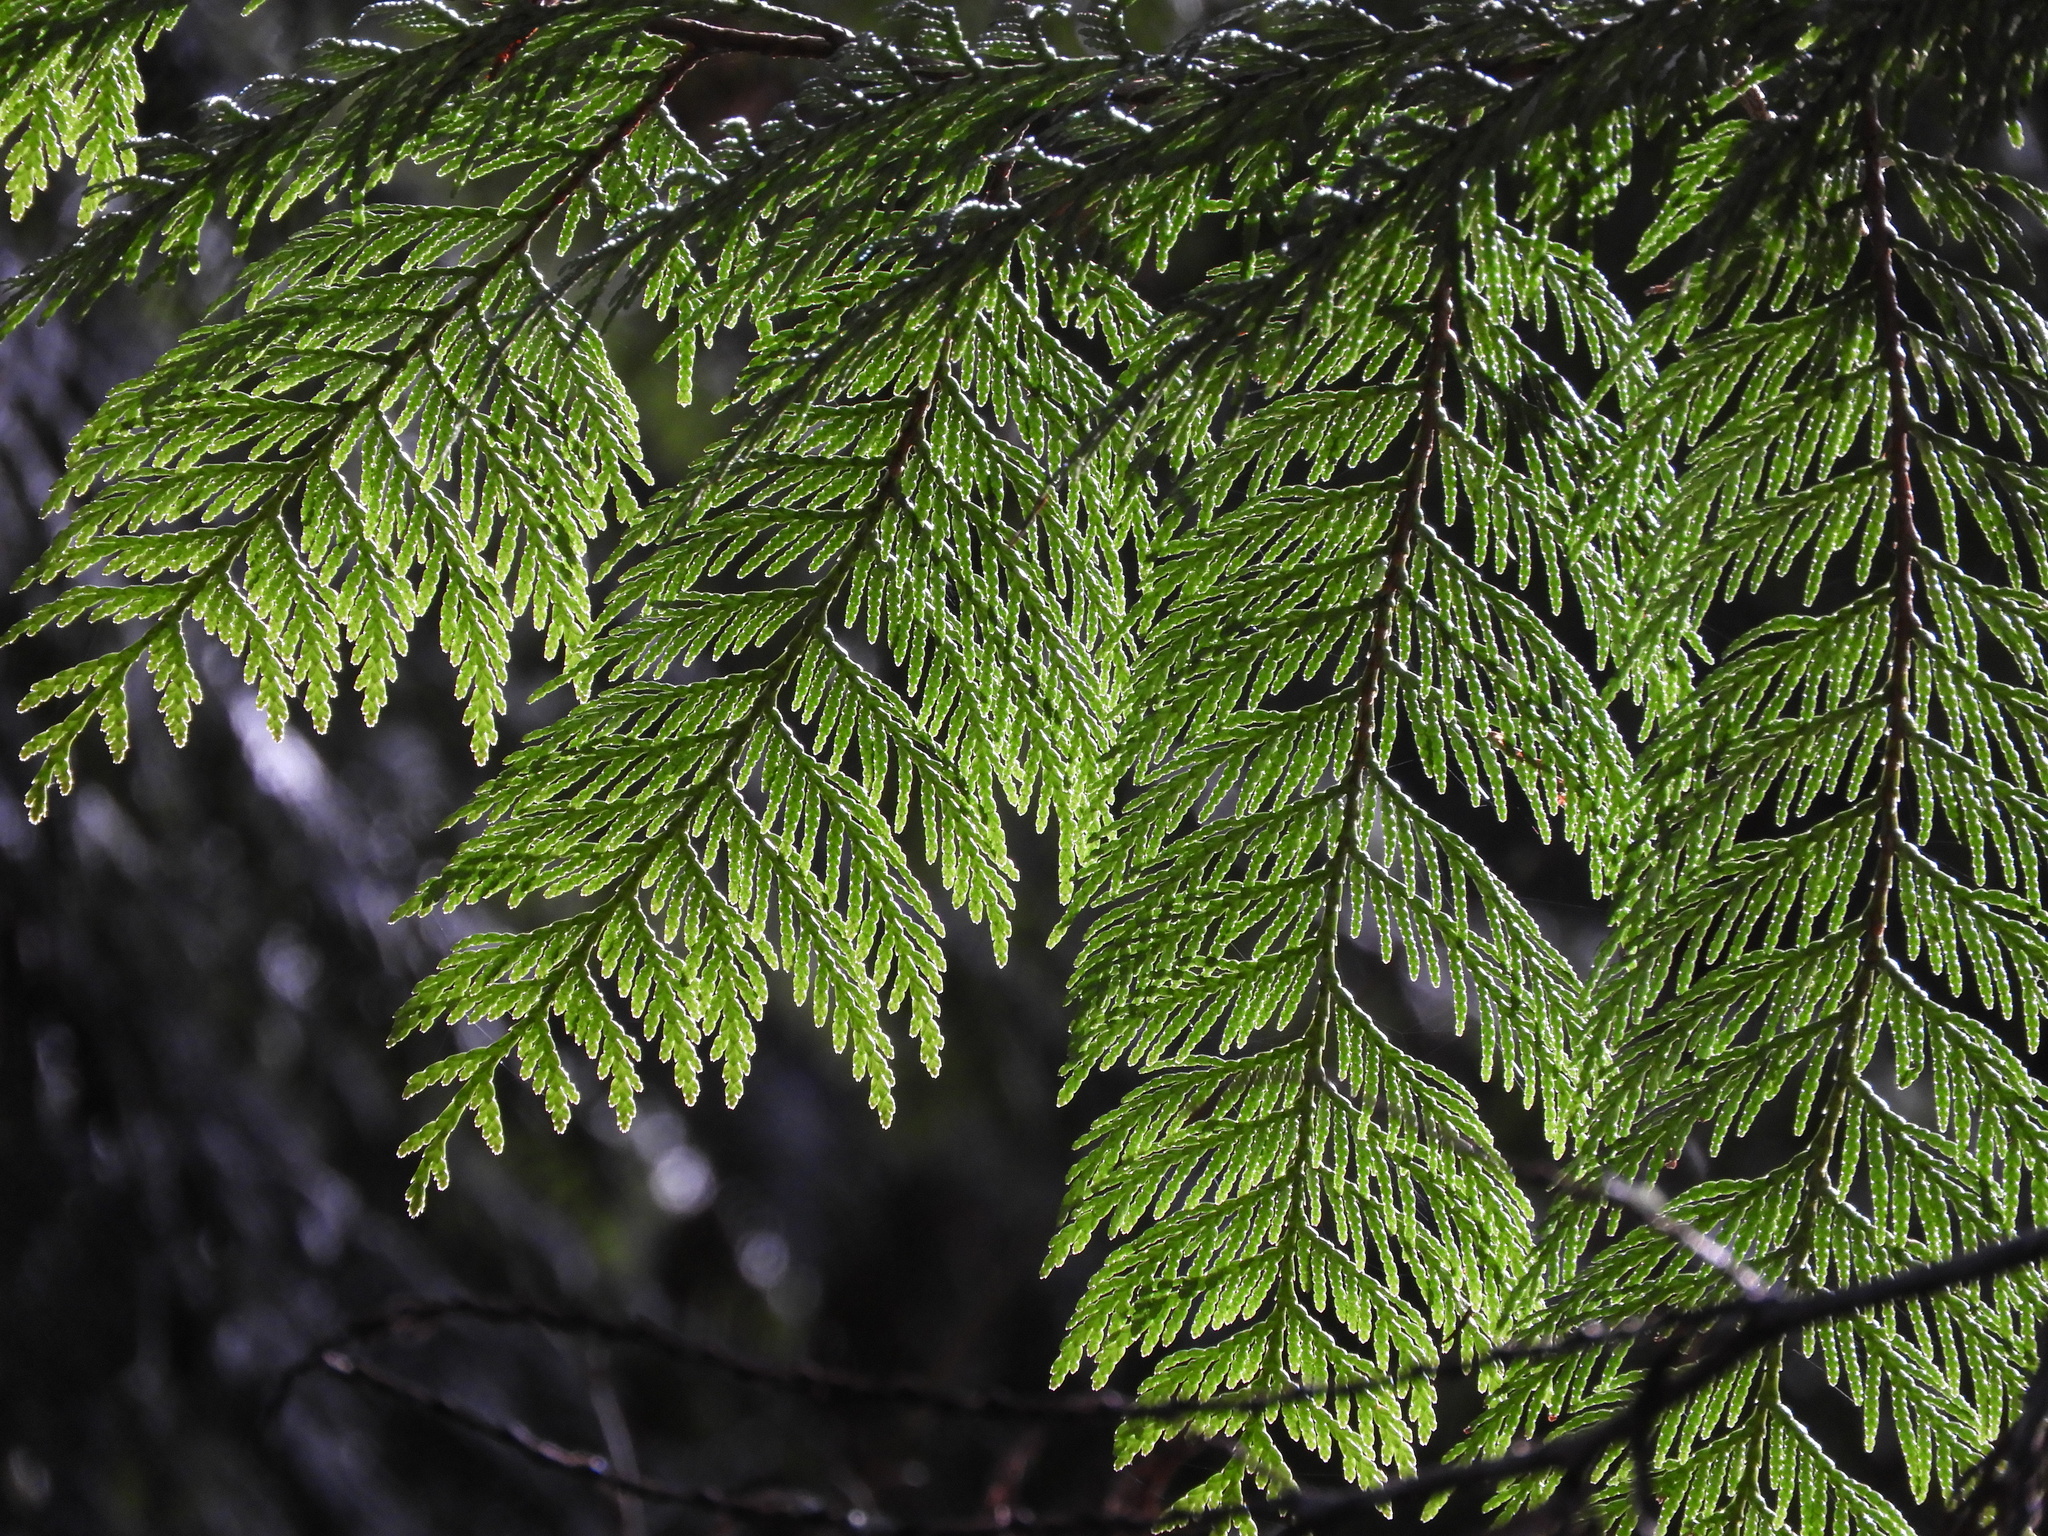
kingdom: Plantae
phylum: Tracheophyta
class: Pinopsida
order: Pinales
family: Cupressaceae
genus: Thuja
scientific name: Thuja plicata
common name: Western red-cedar
